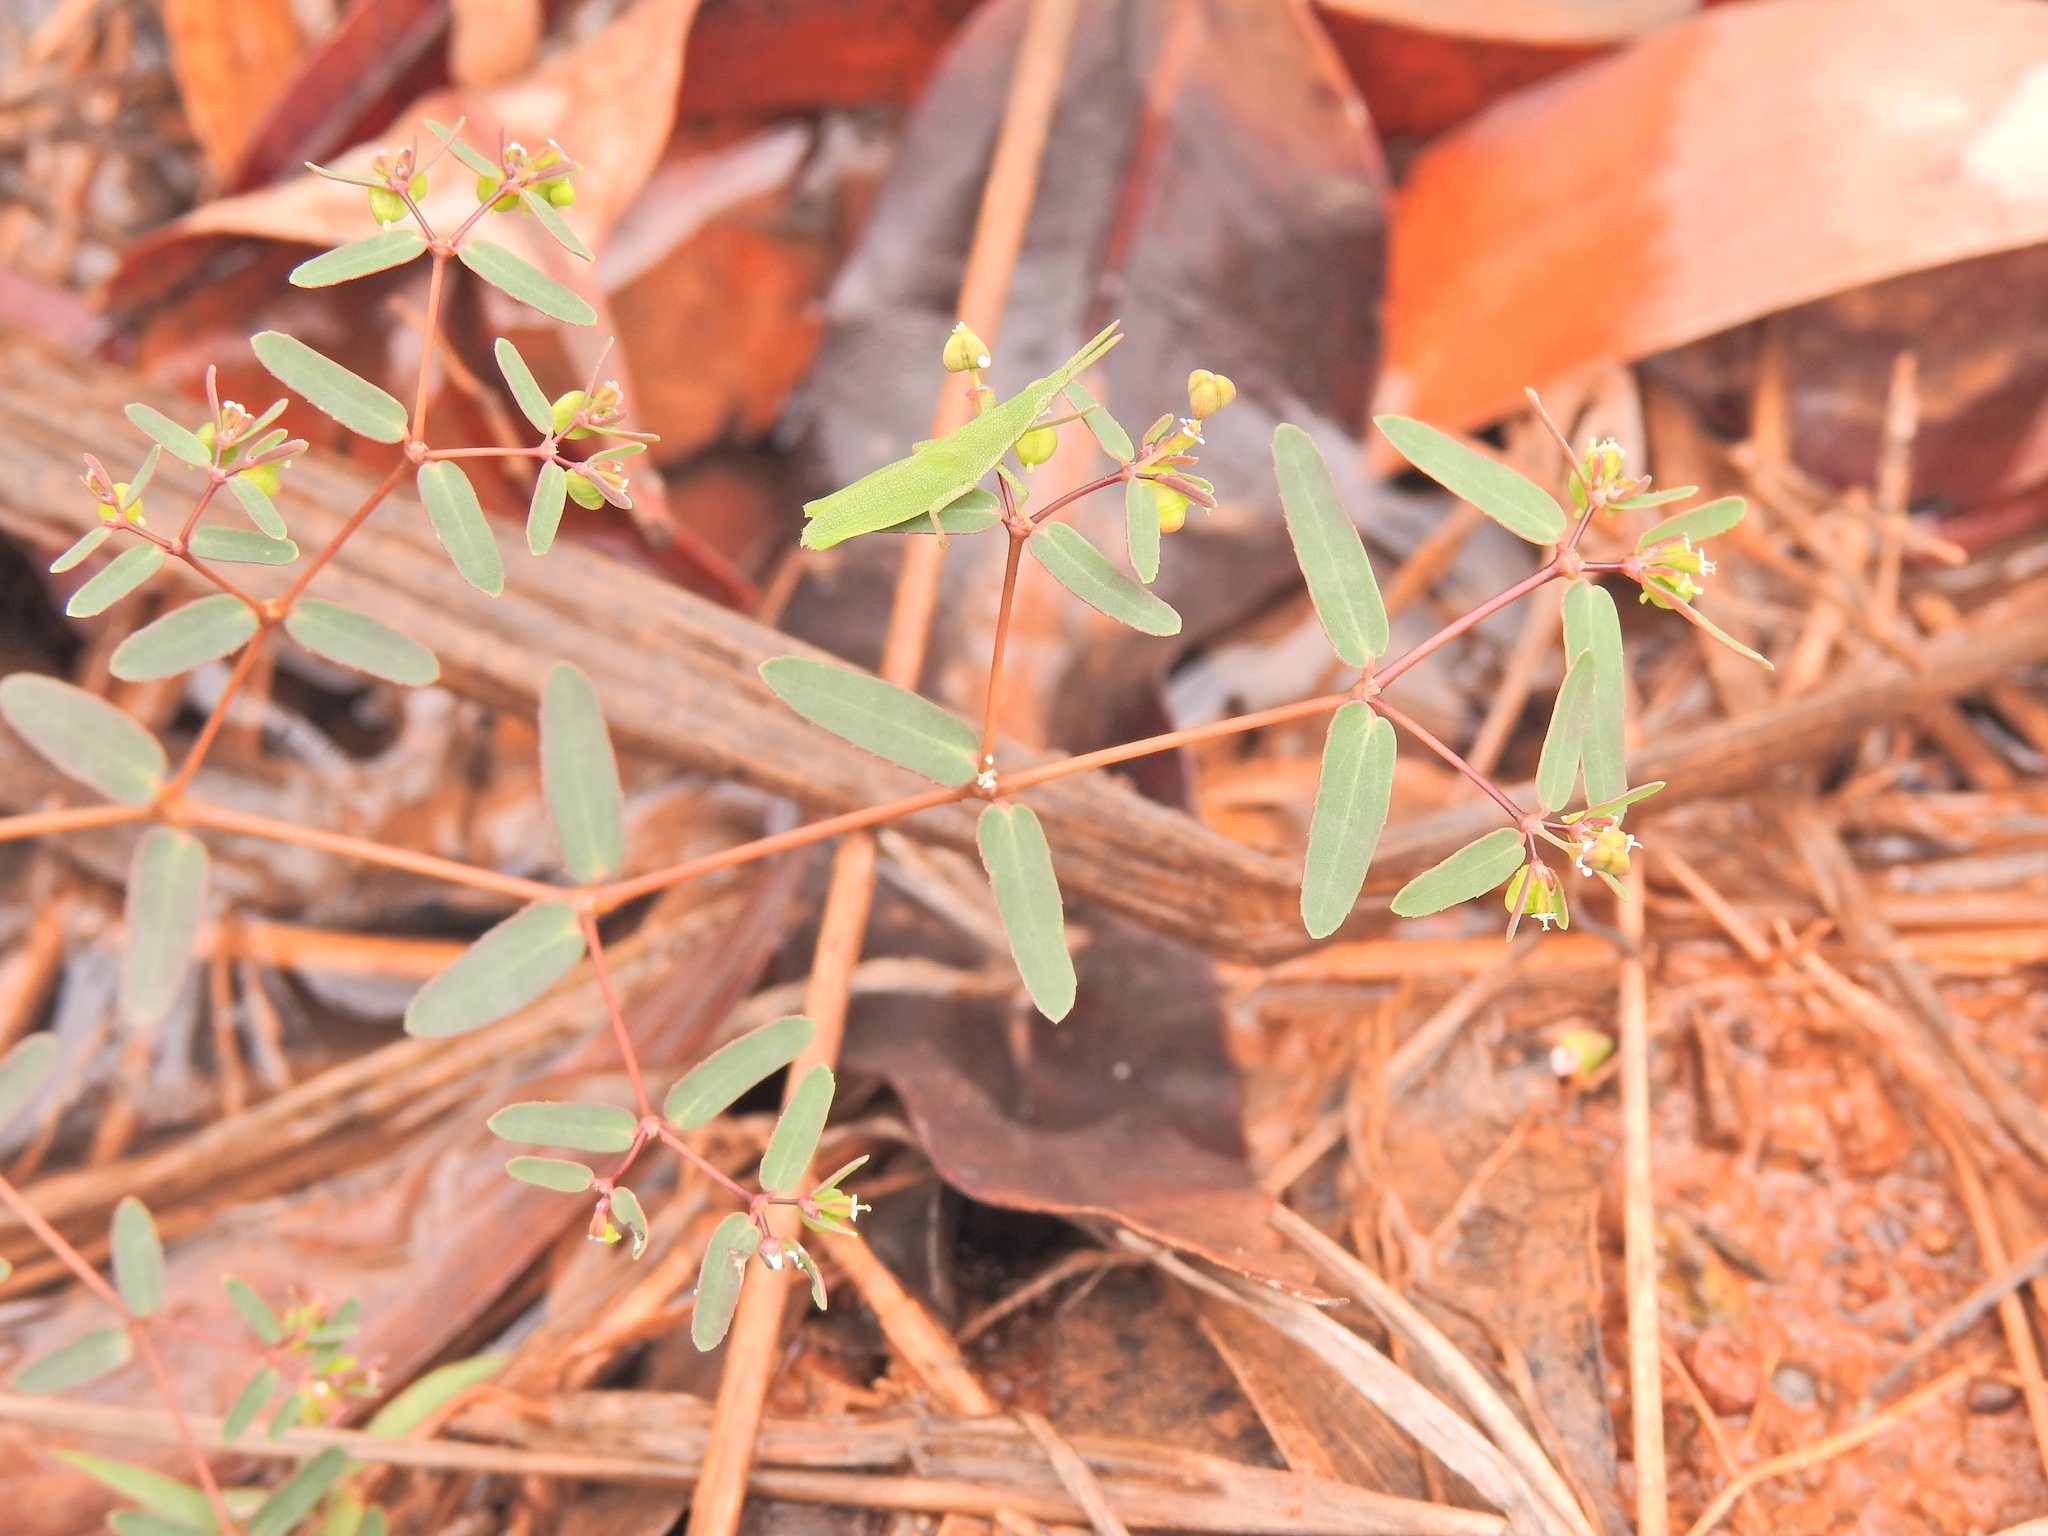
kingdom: Plantae
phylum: Tracheophyta
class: Magnoliopsida
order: Malpighiales
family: Euphorbiaceae
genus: Euphorbia
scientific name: Euphorbia hyssopifolia
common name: Hyssopleaf sandmat
